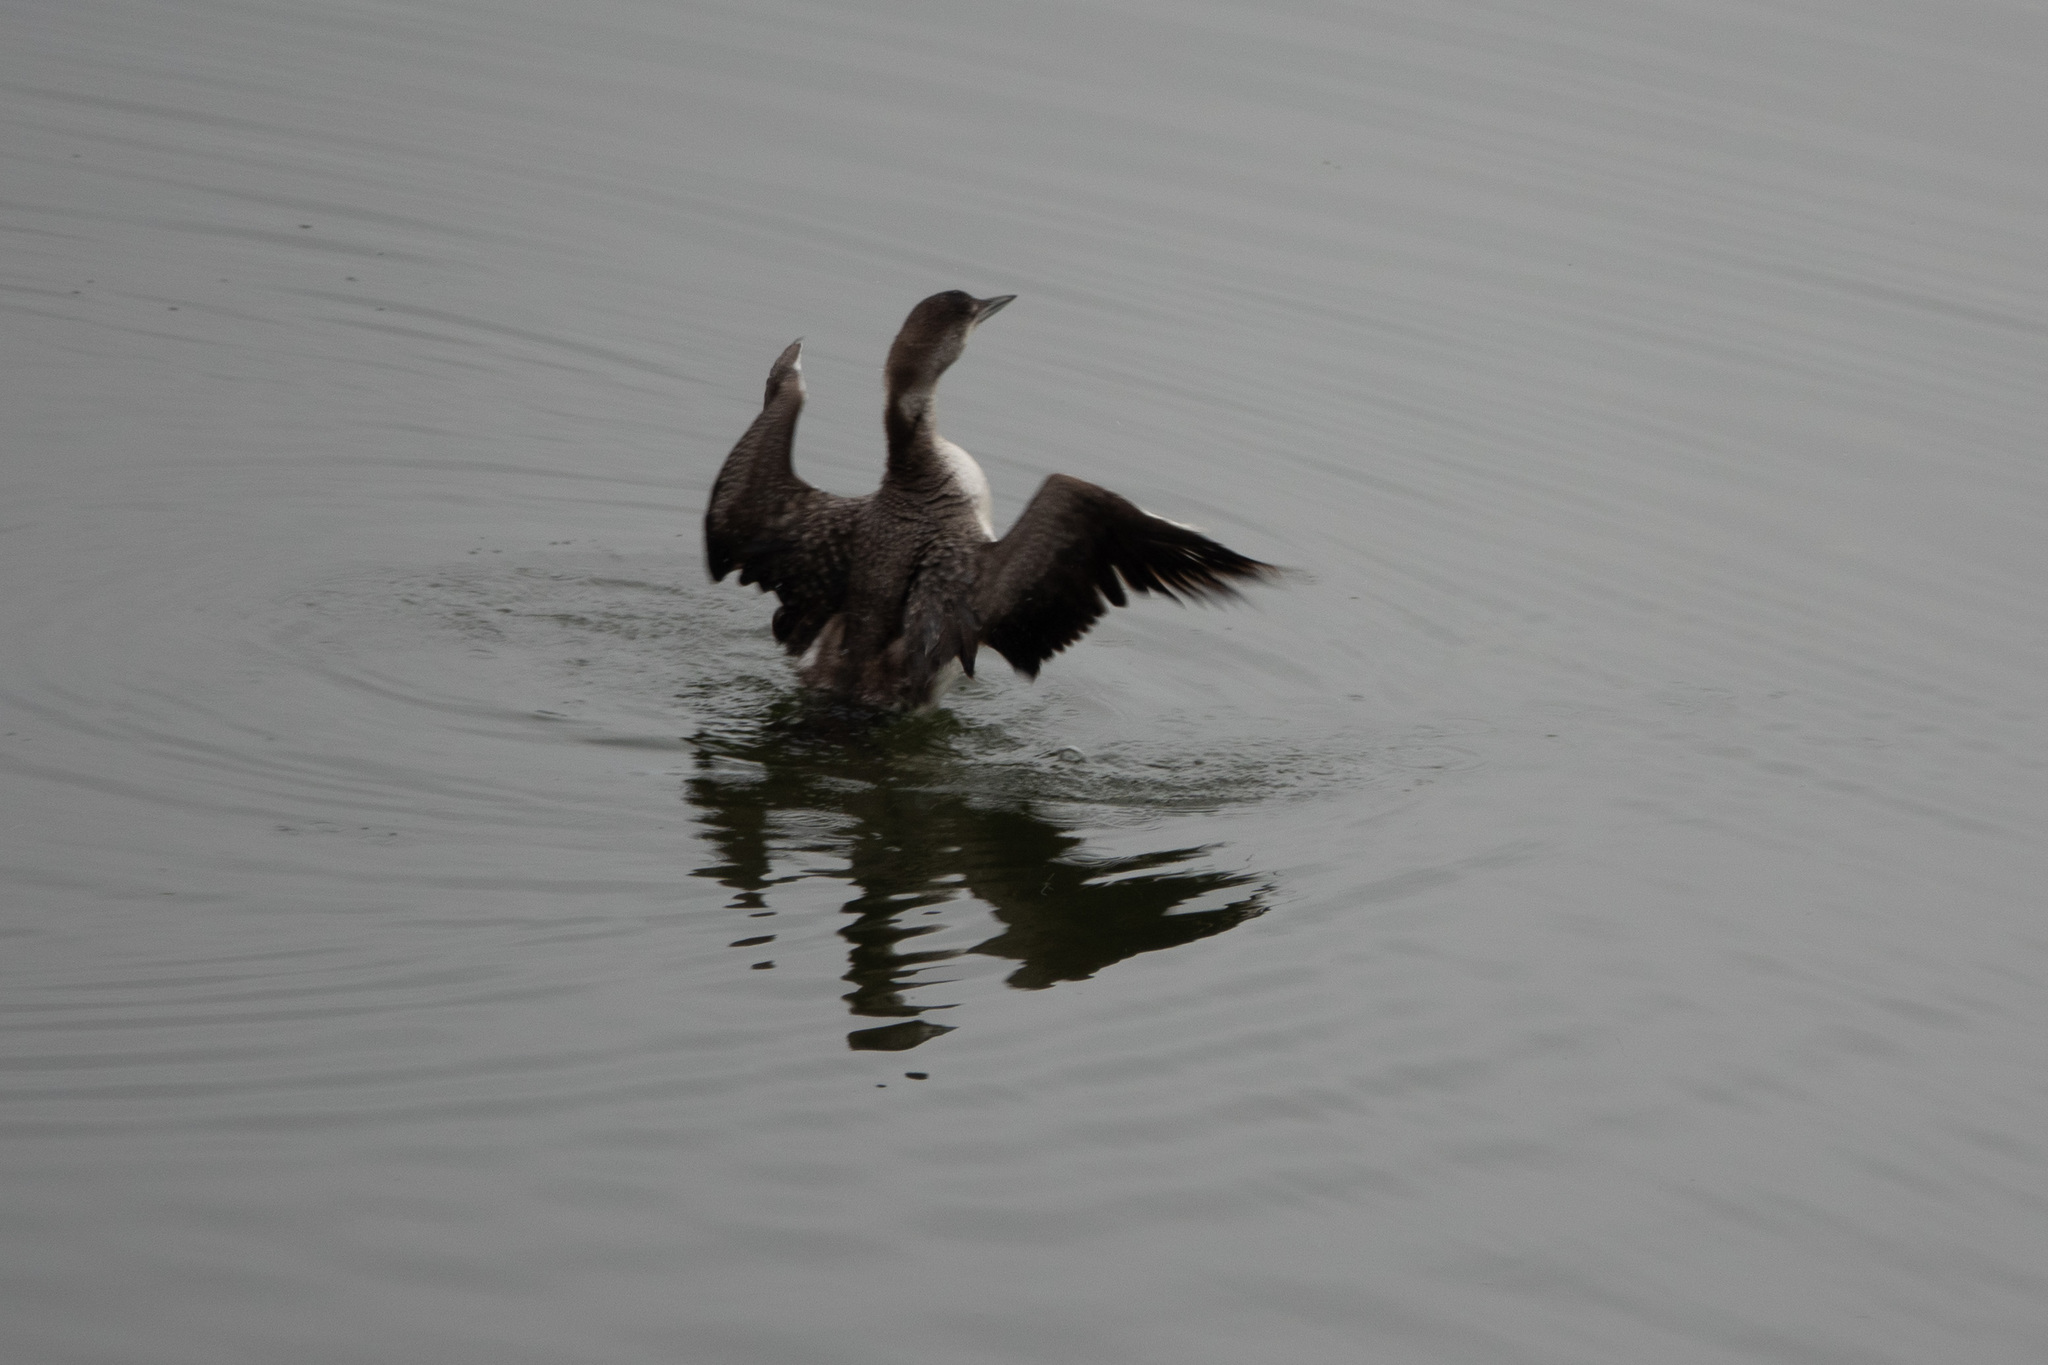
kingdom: Animalia
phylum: Chordata
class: Aves
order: Gaviiformes
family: Gaviidae
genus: Gavia
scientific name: Gavia immer
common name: Common loon
